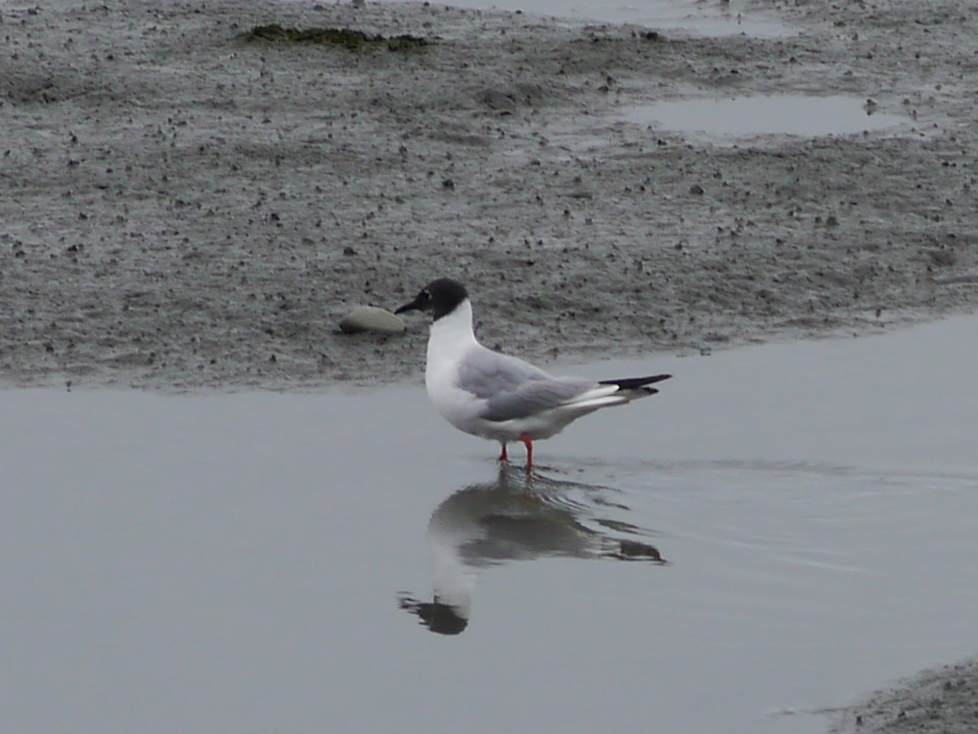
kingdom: Animalia
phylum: Chordata
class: Aves
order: Charadriiformes
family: Laridae
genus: Chroicocephalus
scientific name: Chroicocephalus philadelphia
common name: Bonaparte's gull
